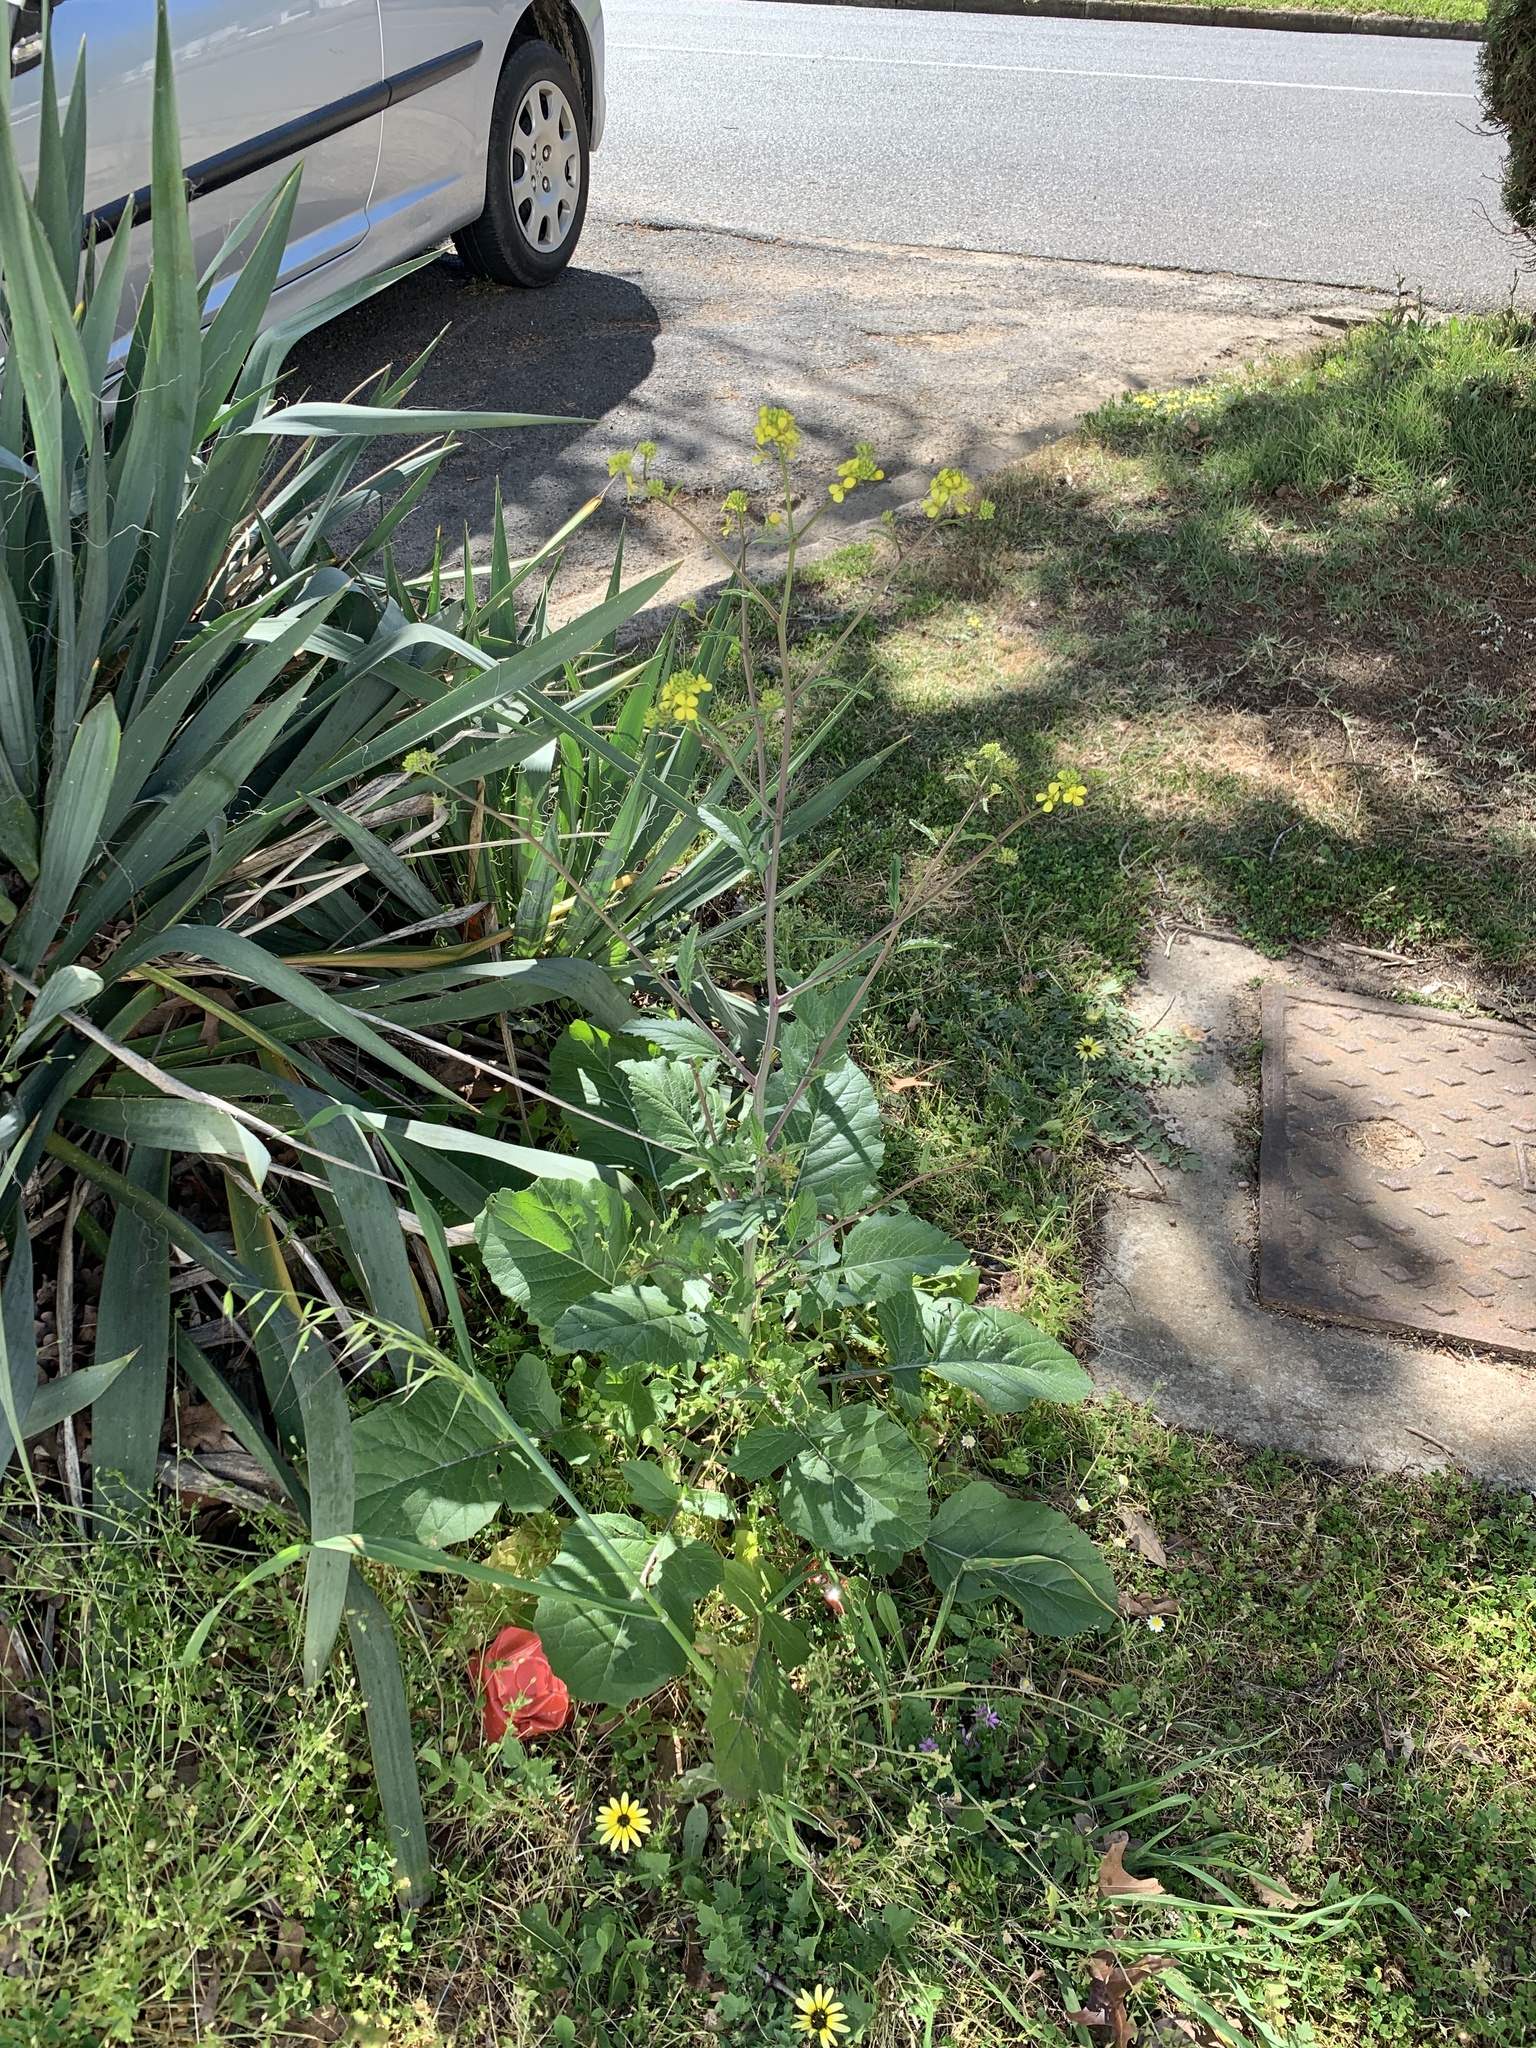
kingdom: Plantae
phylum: Tracheophyta
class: Magnoliopsida
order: Brassicales
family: Brassicaceae
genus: Rapistrum
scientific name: Rapistrum rugosum
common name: Annual bastardcabbage
